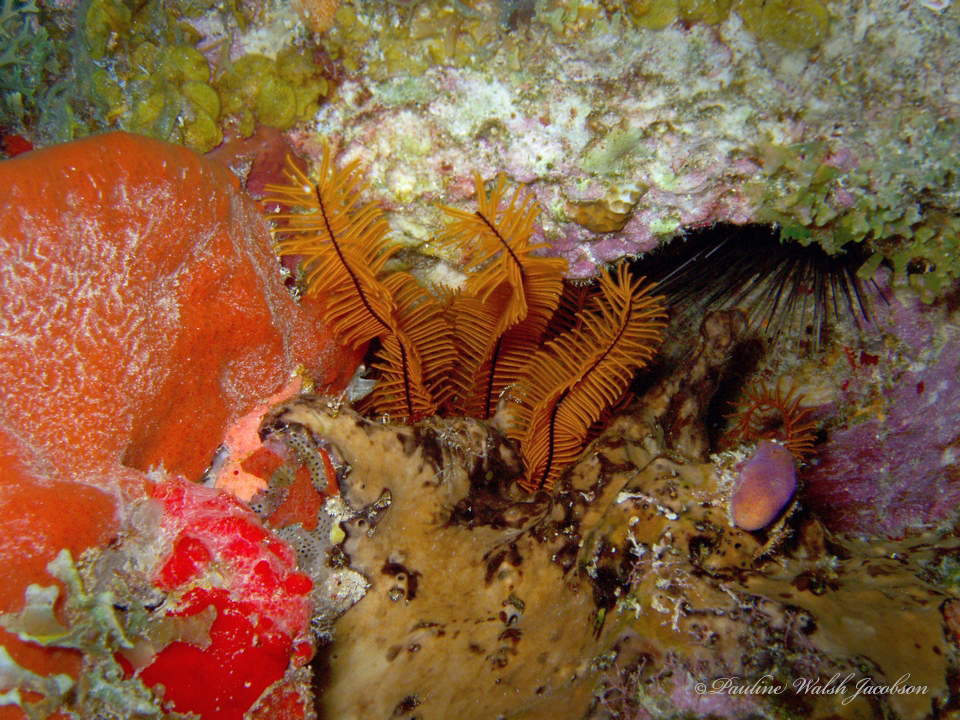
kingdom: Animalia
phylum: Echinodermata
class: Crinoidea
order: Comatulida
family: Comatulidae
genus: Davidaster
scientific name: Davidaster rubiginosus
